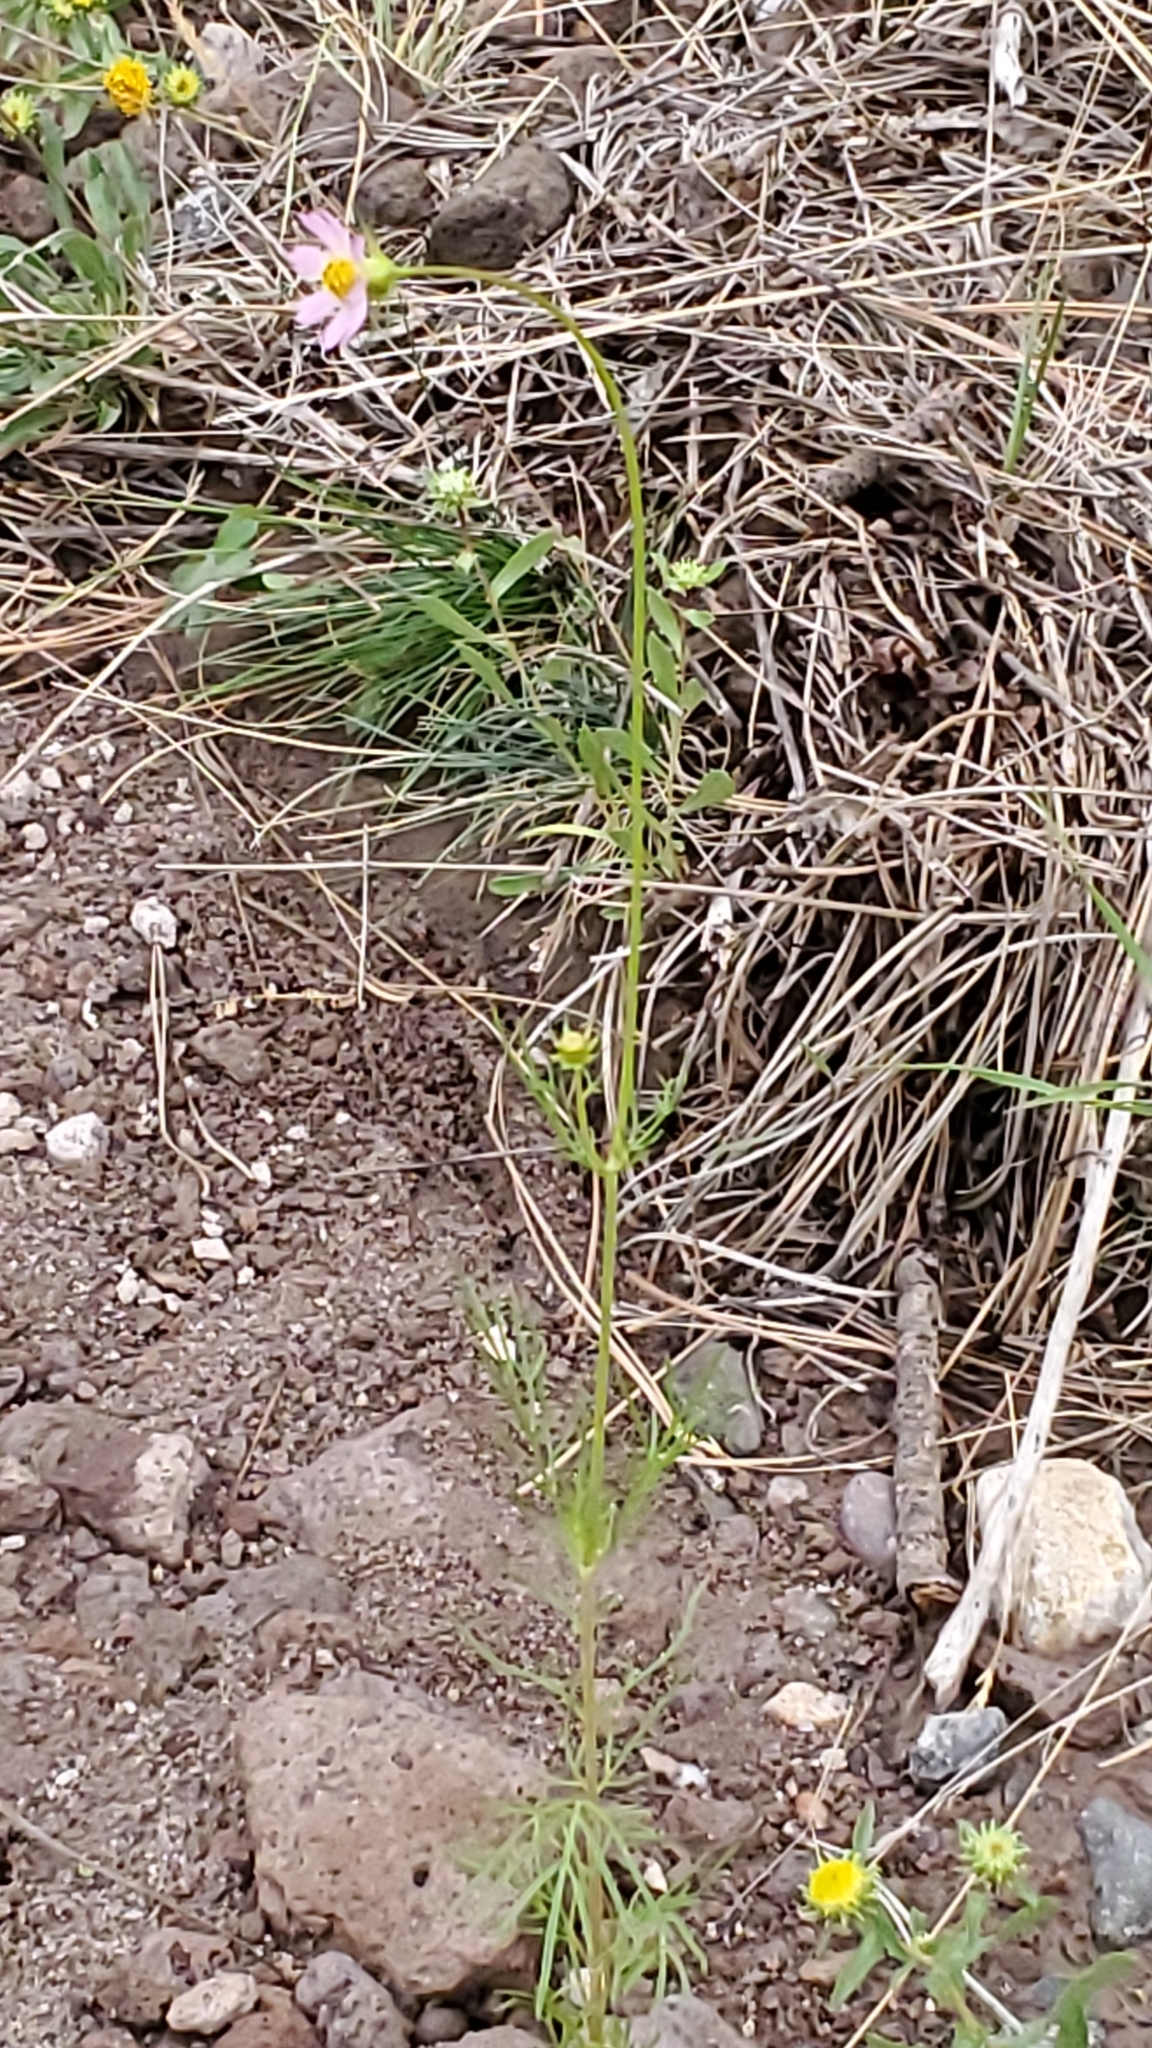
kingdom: Plantae
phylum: Tracheophyta
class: Magnoliopsida
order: Asterales
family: Asteraceae
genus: Cosmos
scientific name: Cosmos parviflorus
